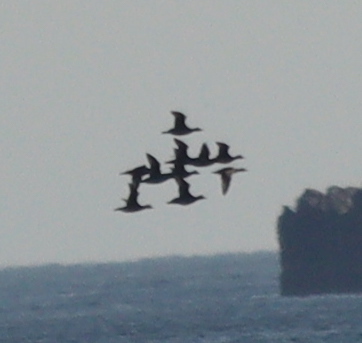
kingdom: Animalia
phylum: Chordata
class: Aves
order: Anseriformes
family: Anatidae
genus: Melanitta
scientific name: Melanitta nigra
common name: Common scoter
